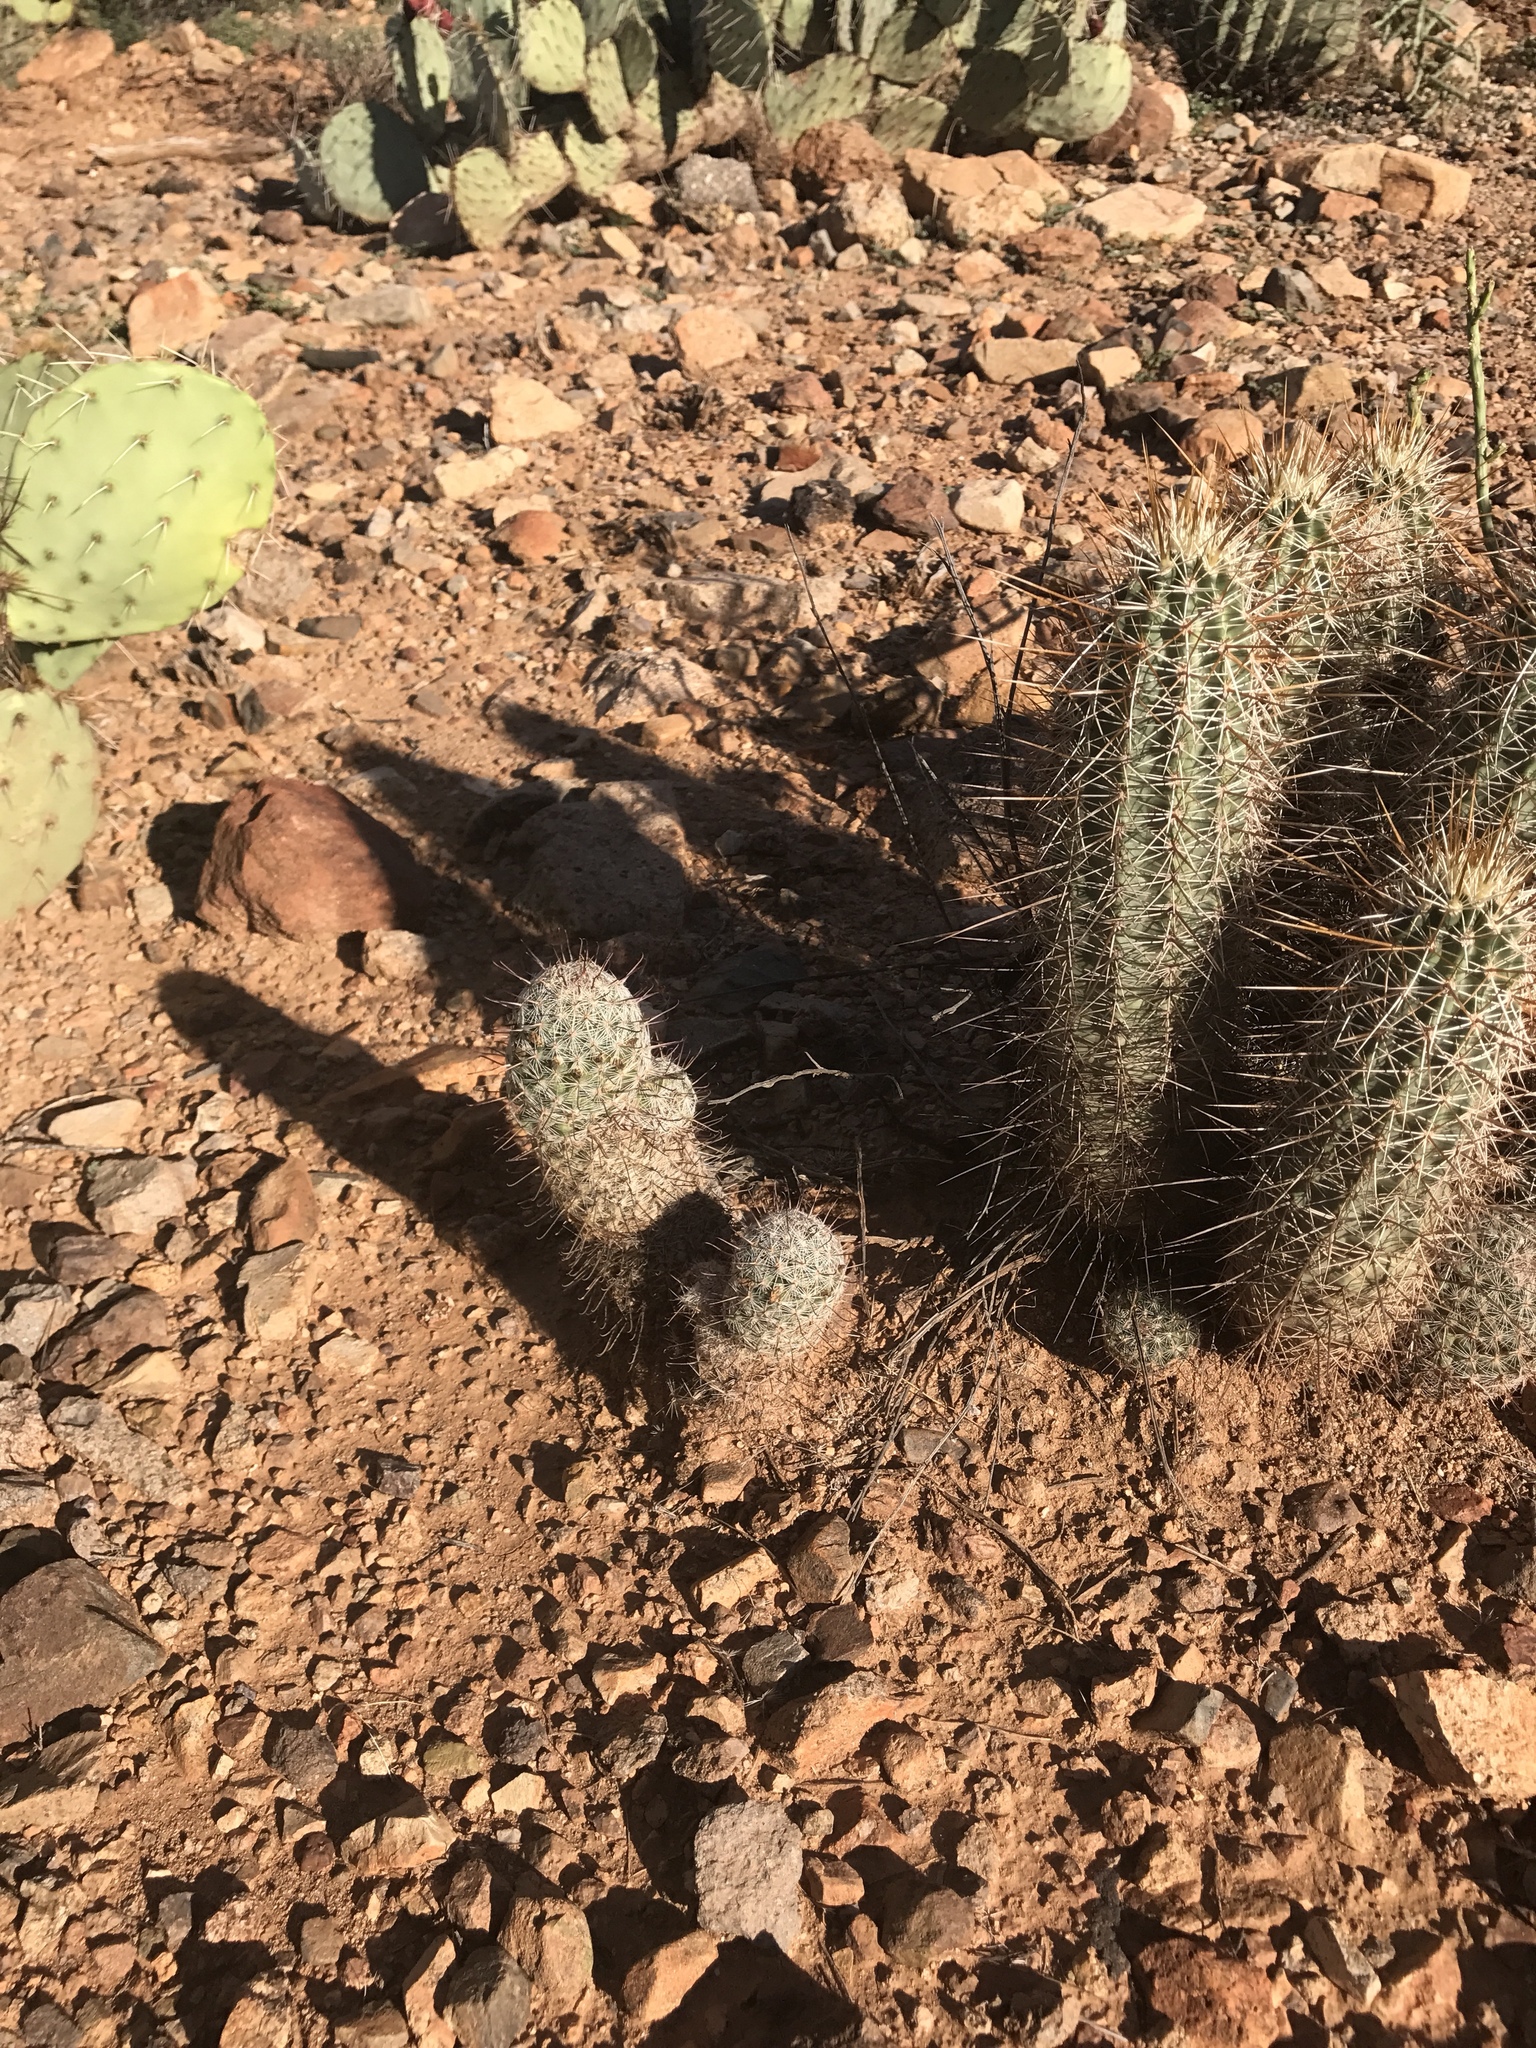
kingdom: Plantae
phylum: Tracheophyta
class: Magnoliopsida
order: Caryophyllales
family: Cactaceae
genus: Echinocereus
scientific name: Echinocereus fasciculatus
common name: Bundle hedgehog
